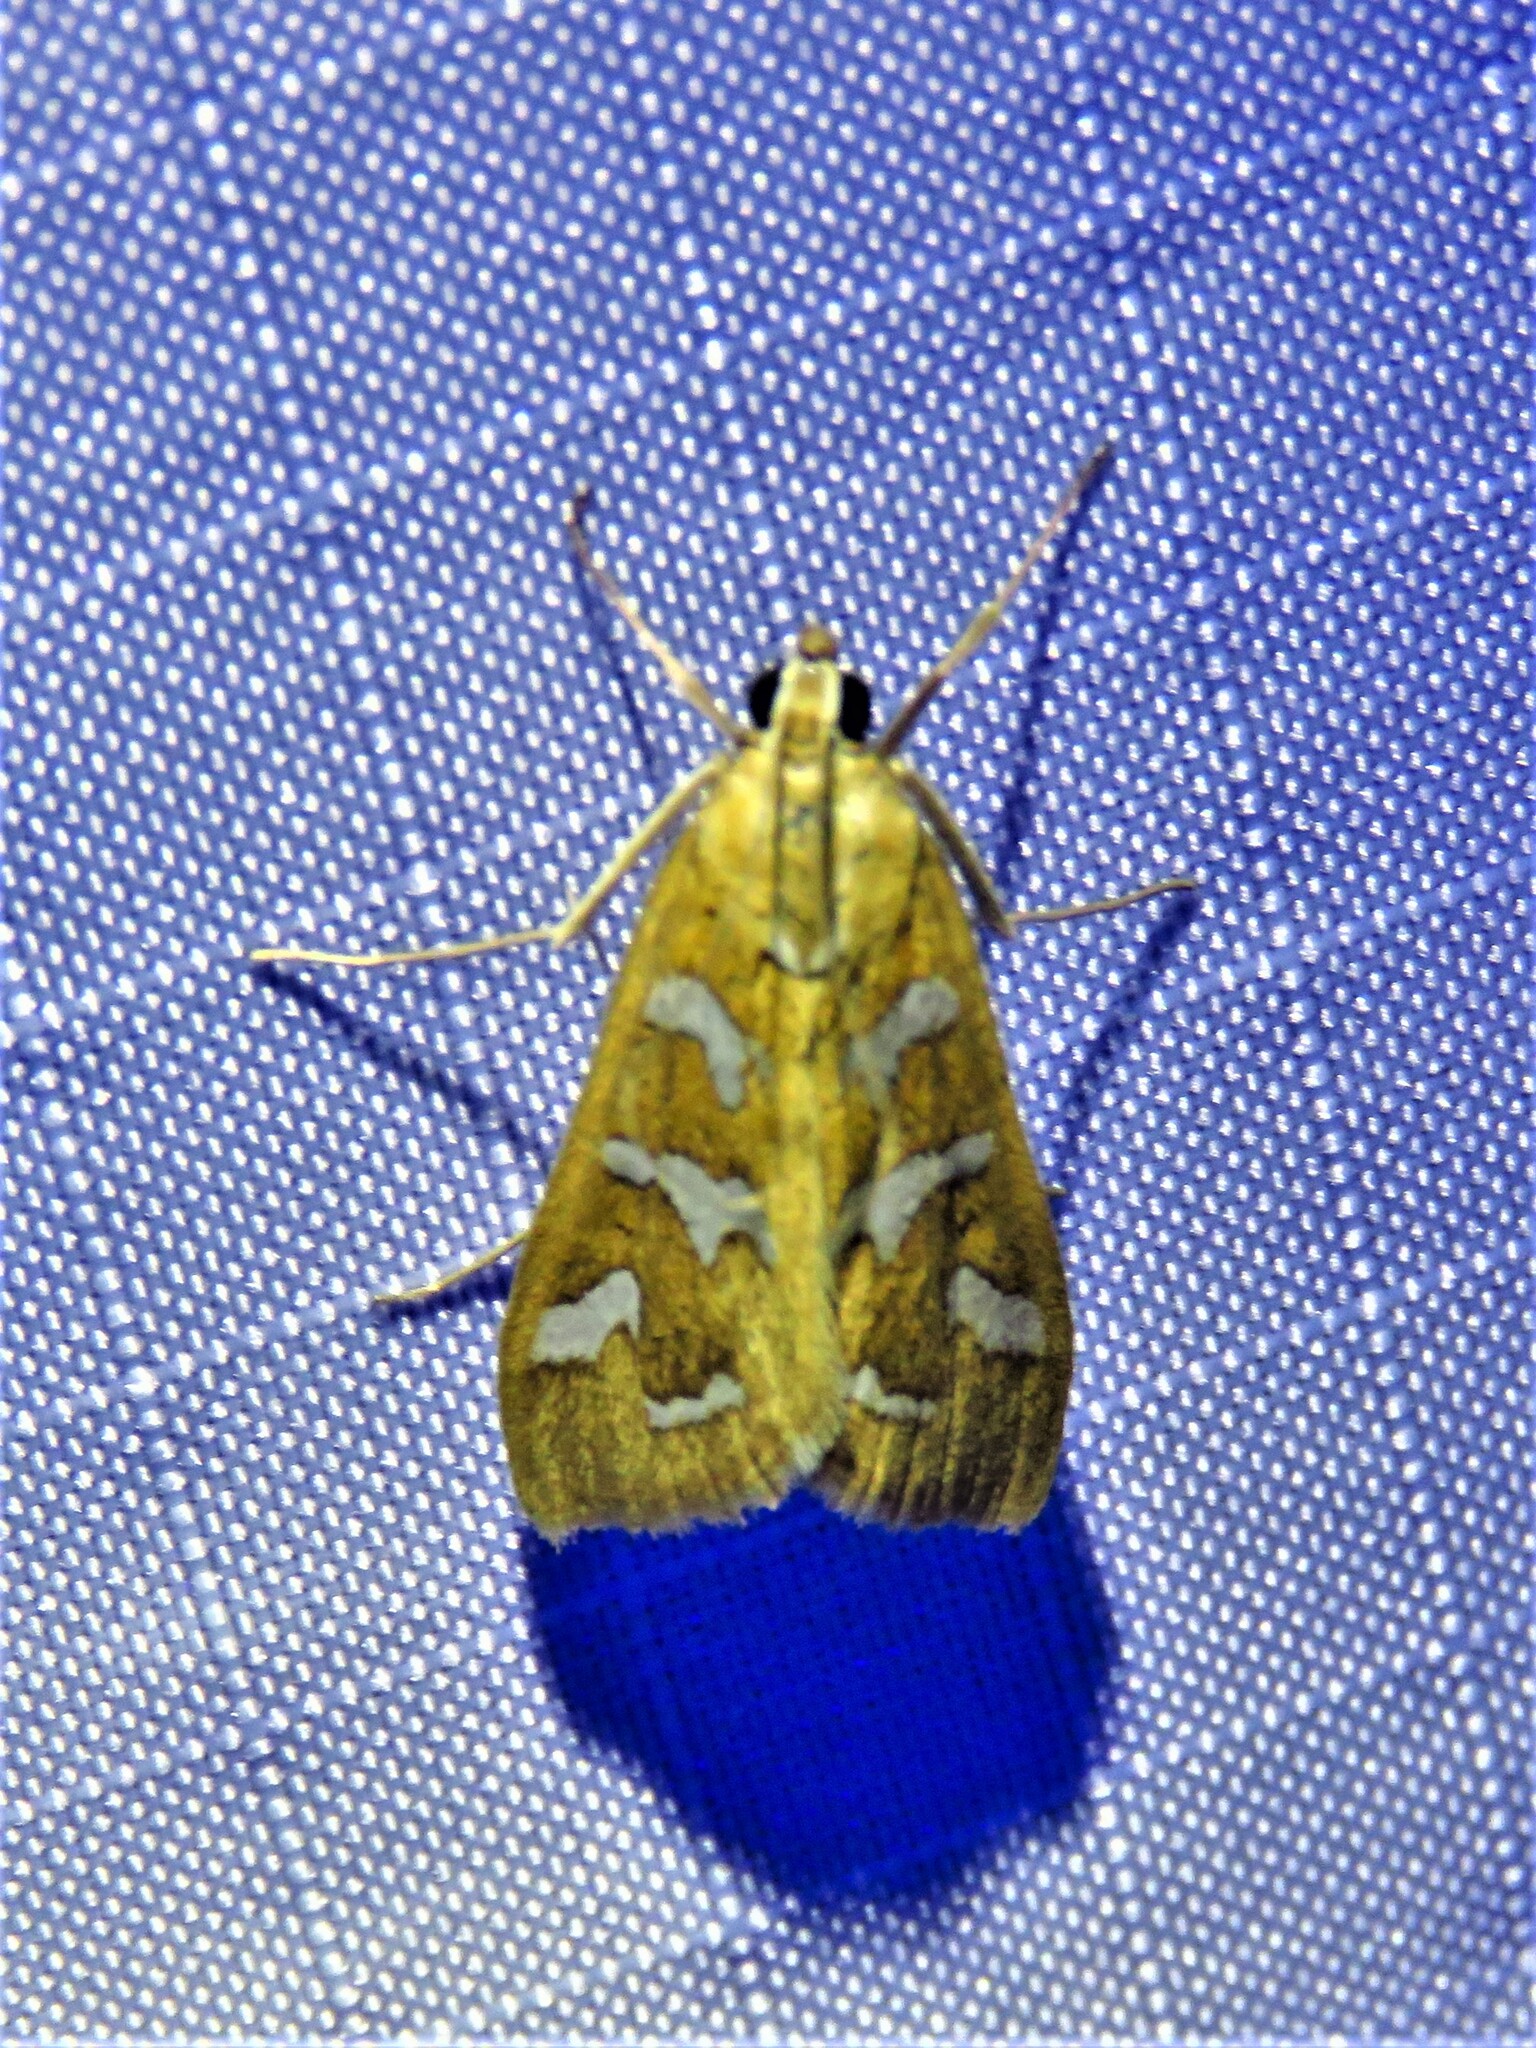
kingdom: Animalia
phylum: Arthropoda
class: Insecta
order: Lepidoptera
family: Crambidae
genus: Diastictis
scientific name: Diastictis fracturalis
